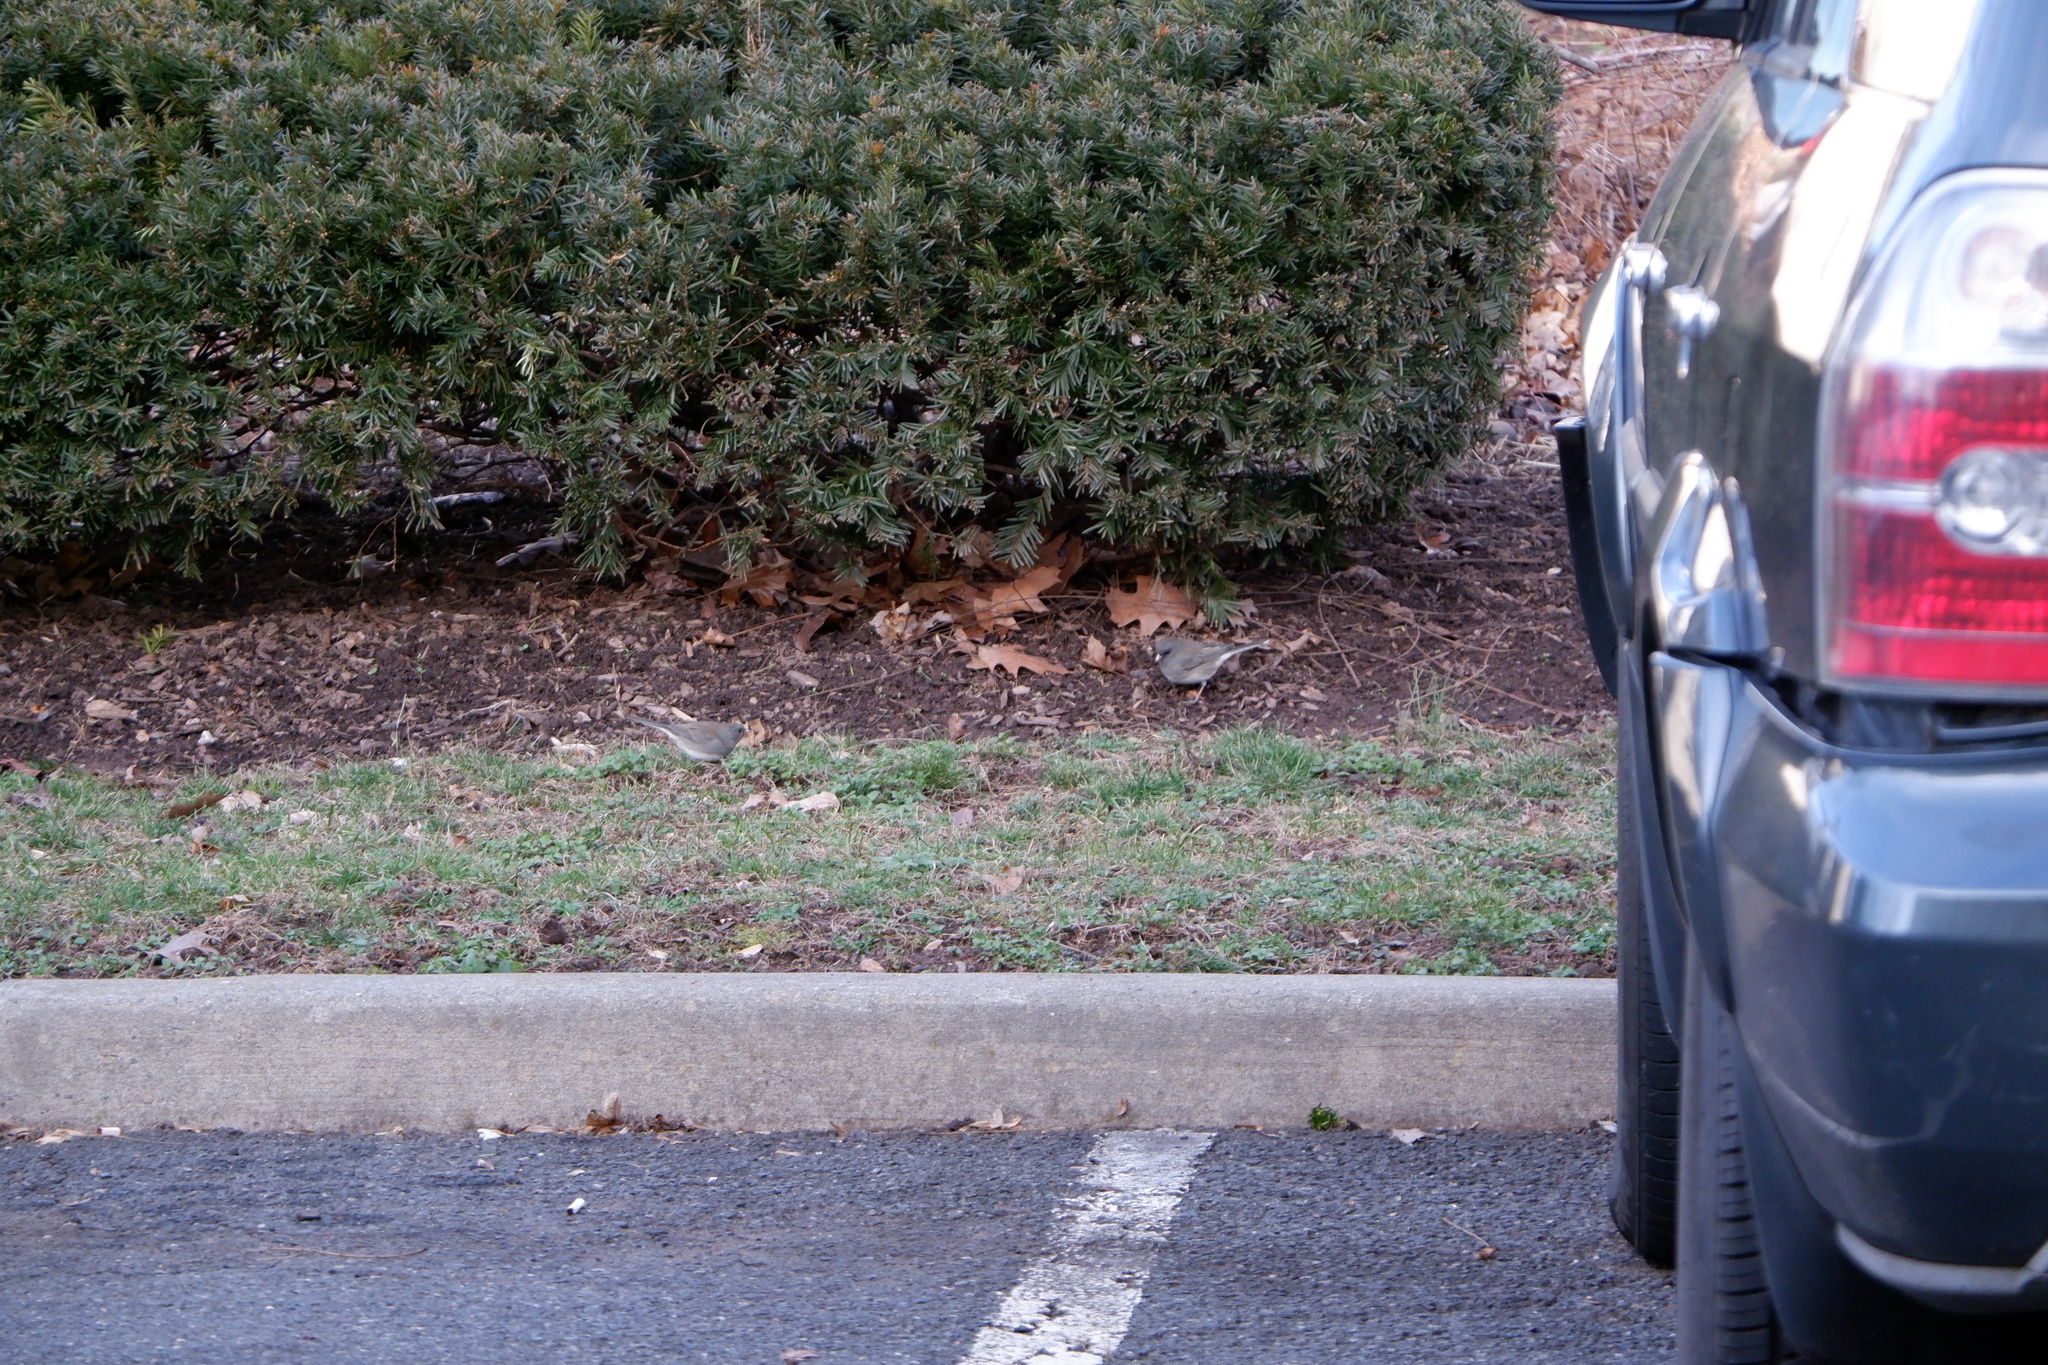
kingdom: Animalia
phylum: Chordata
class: Aves
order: Passeriformes
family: Passerellidae
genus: Junco
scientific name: Junco hyemalis
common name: Dark-eyed junco
